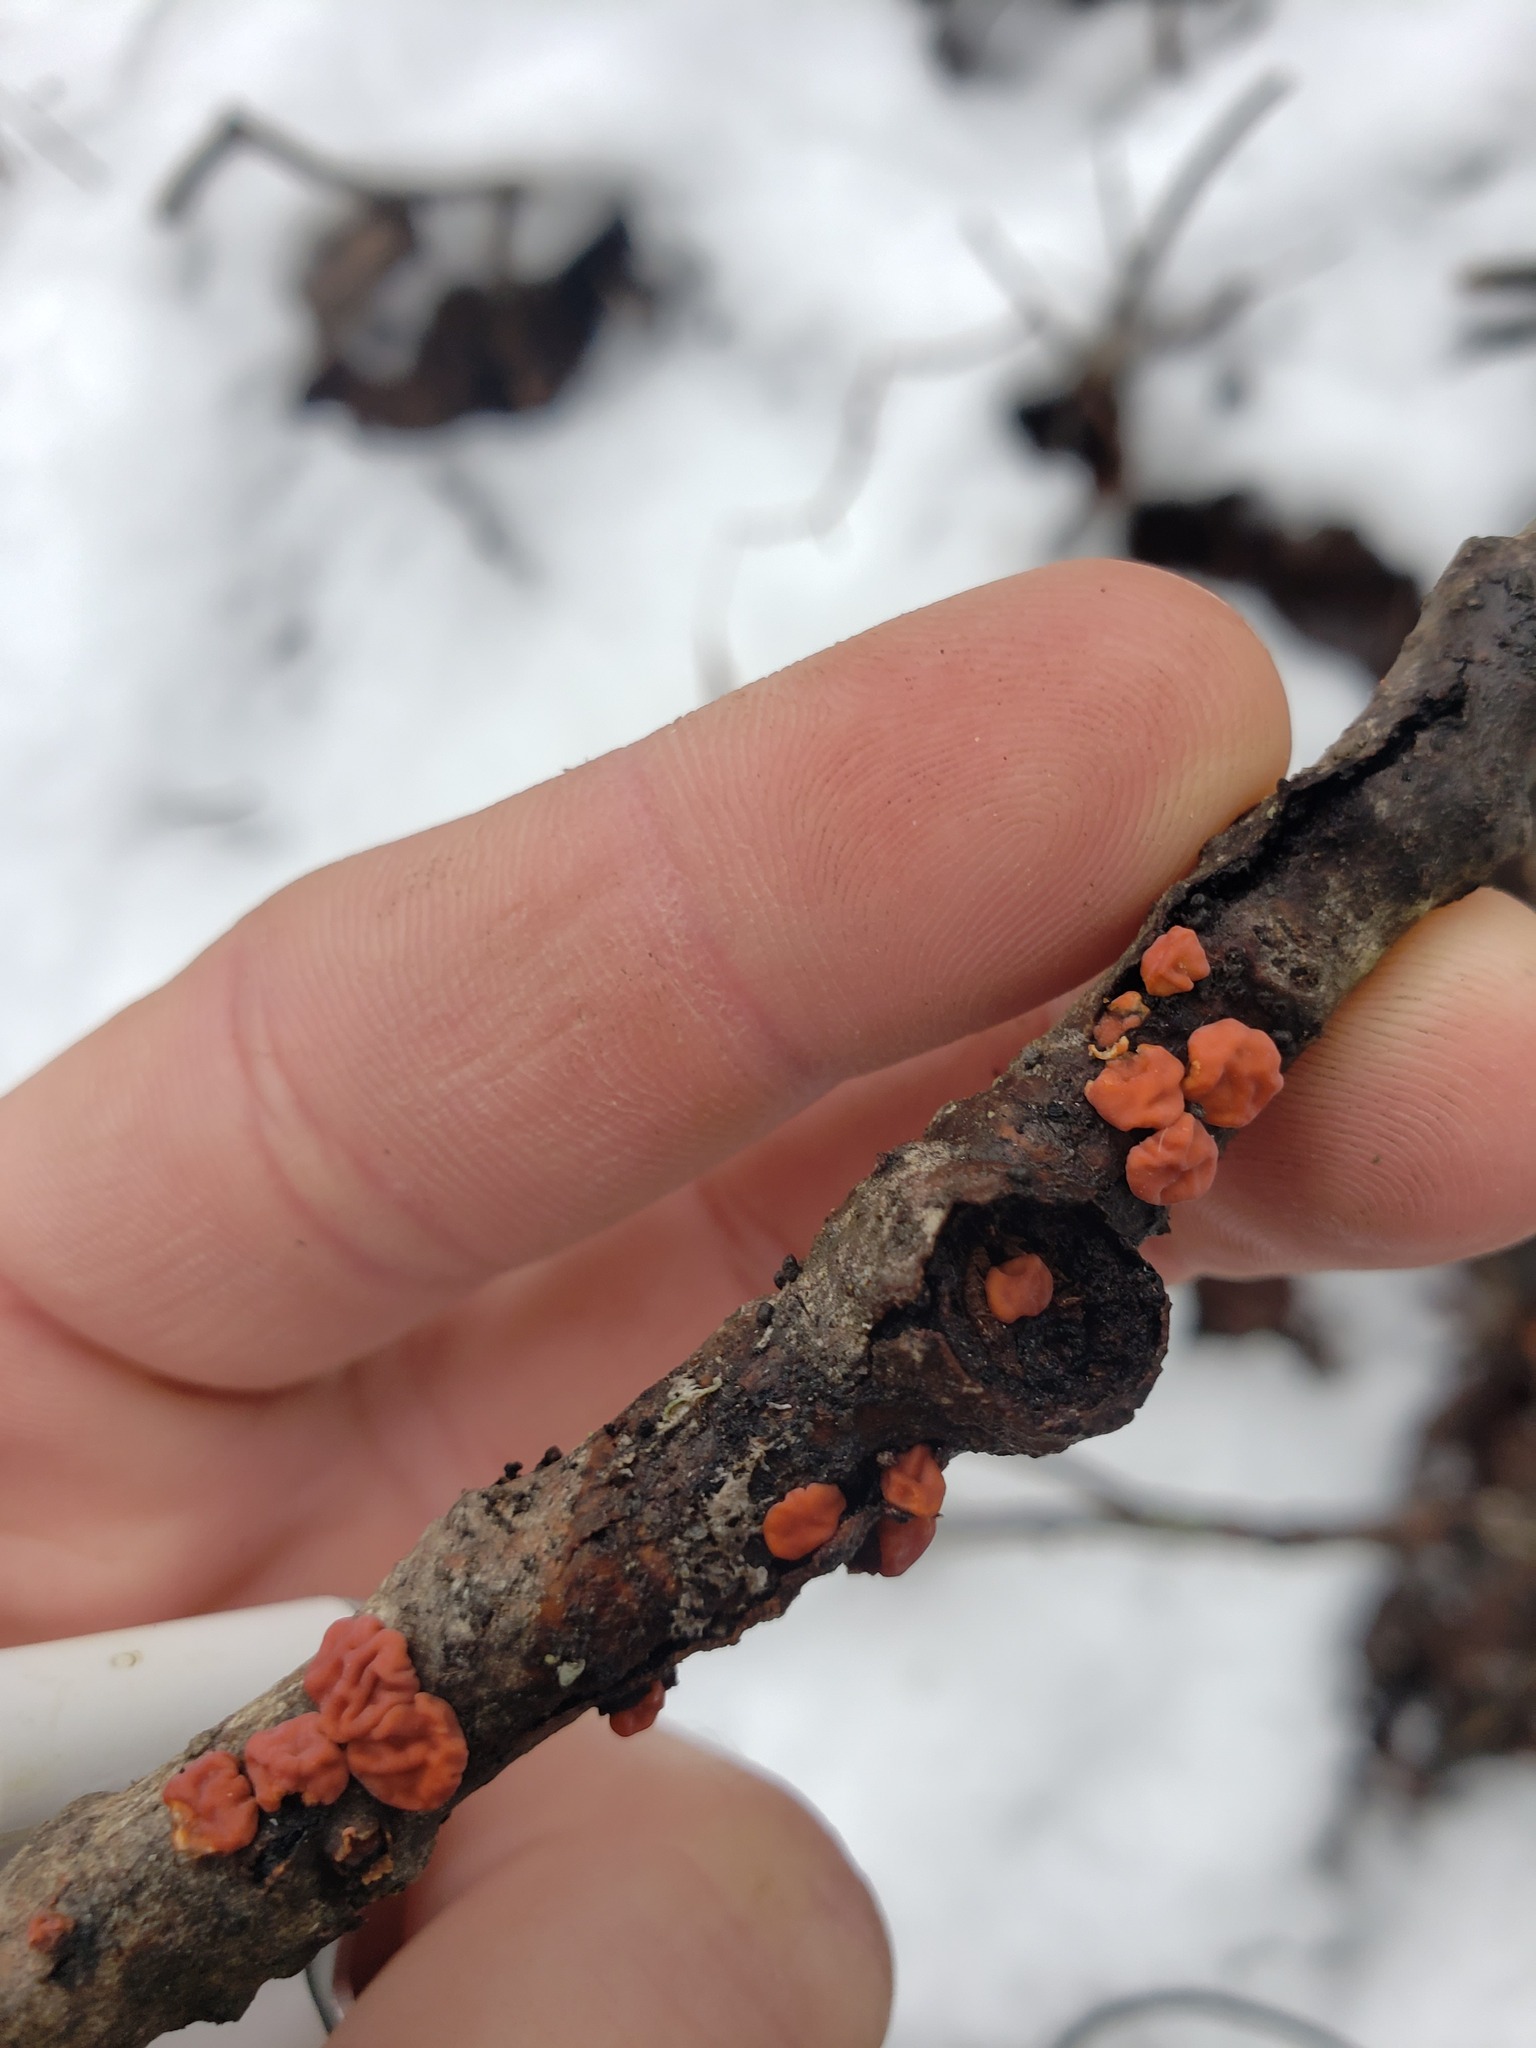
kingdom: Fungi
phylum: Basidiomycota
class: Agaricomycetes
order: Russulales
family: Peniophoraceae
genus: Peniophora
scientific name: Peniophora rufa
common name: Red tree brain fungus
